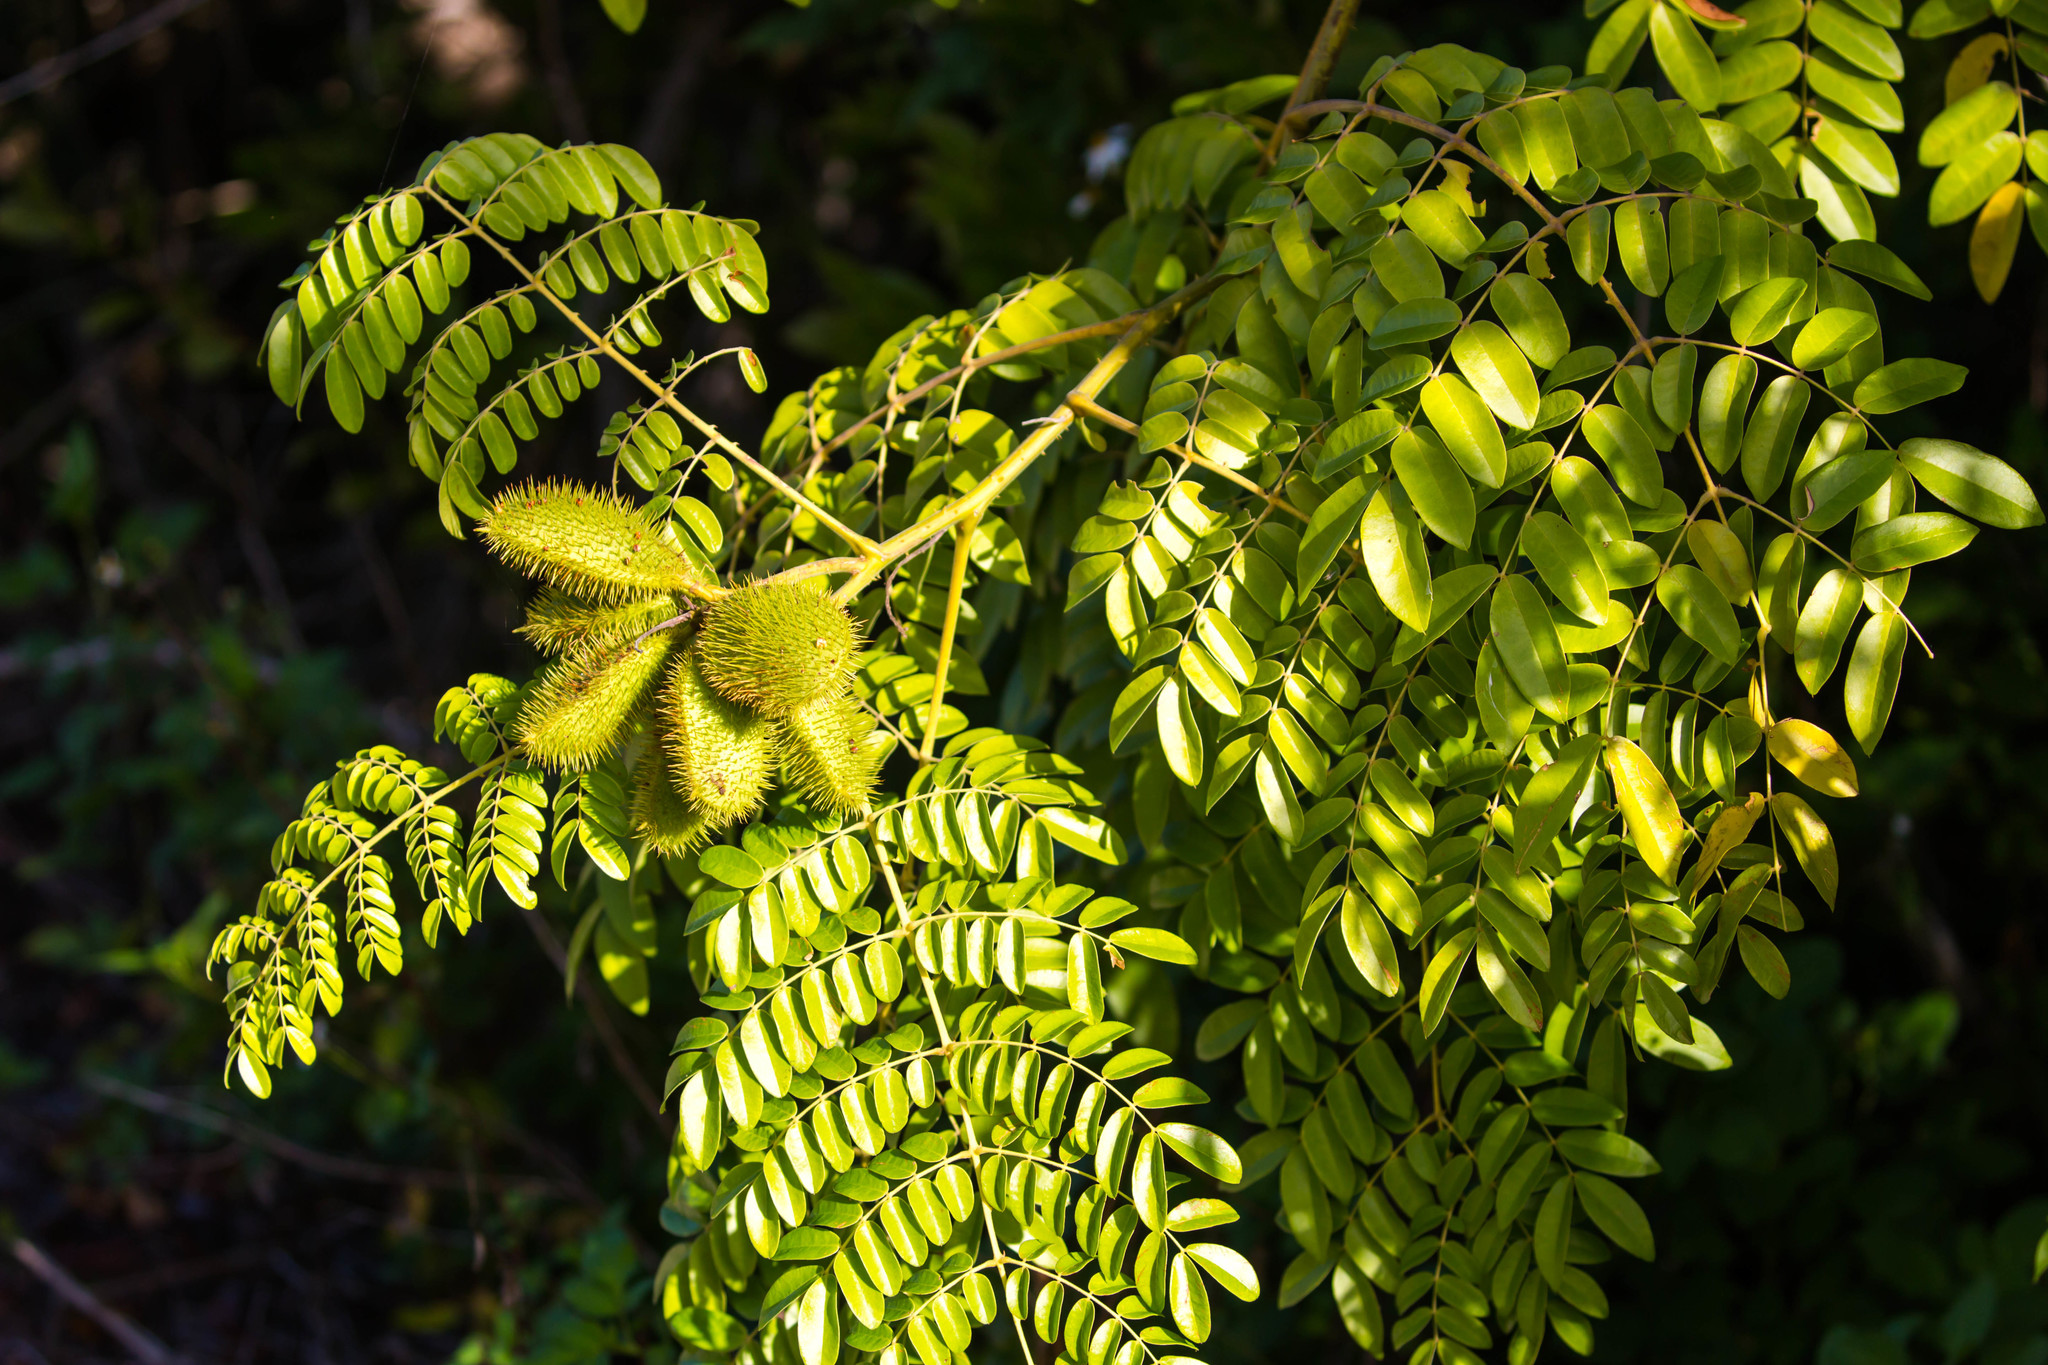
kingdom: Plantae
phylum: Tracheophyta
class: Magnoliopsida
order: Fabales
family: Fabaceae
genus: Guilandina
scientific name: Guilandina bonduc
